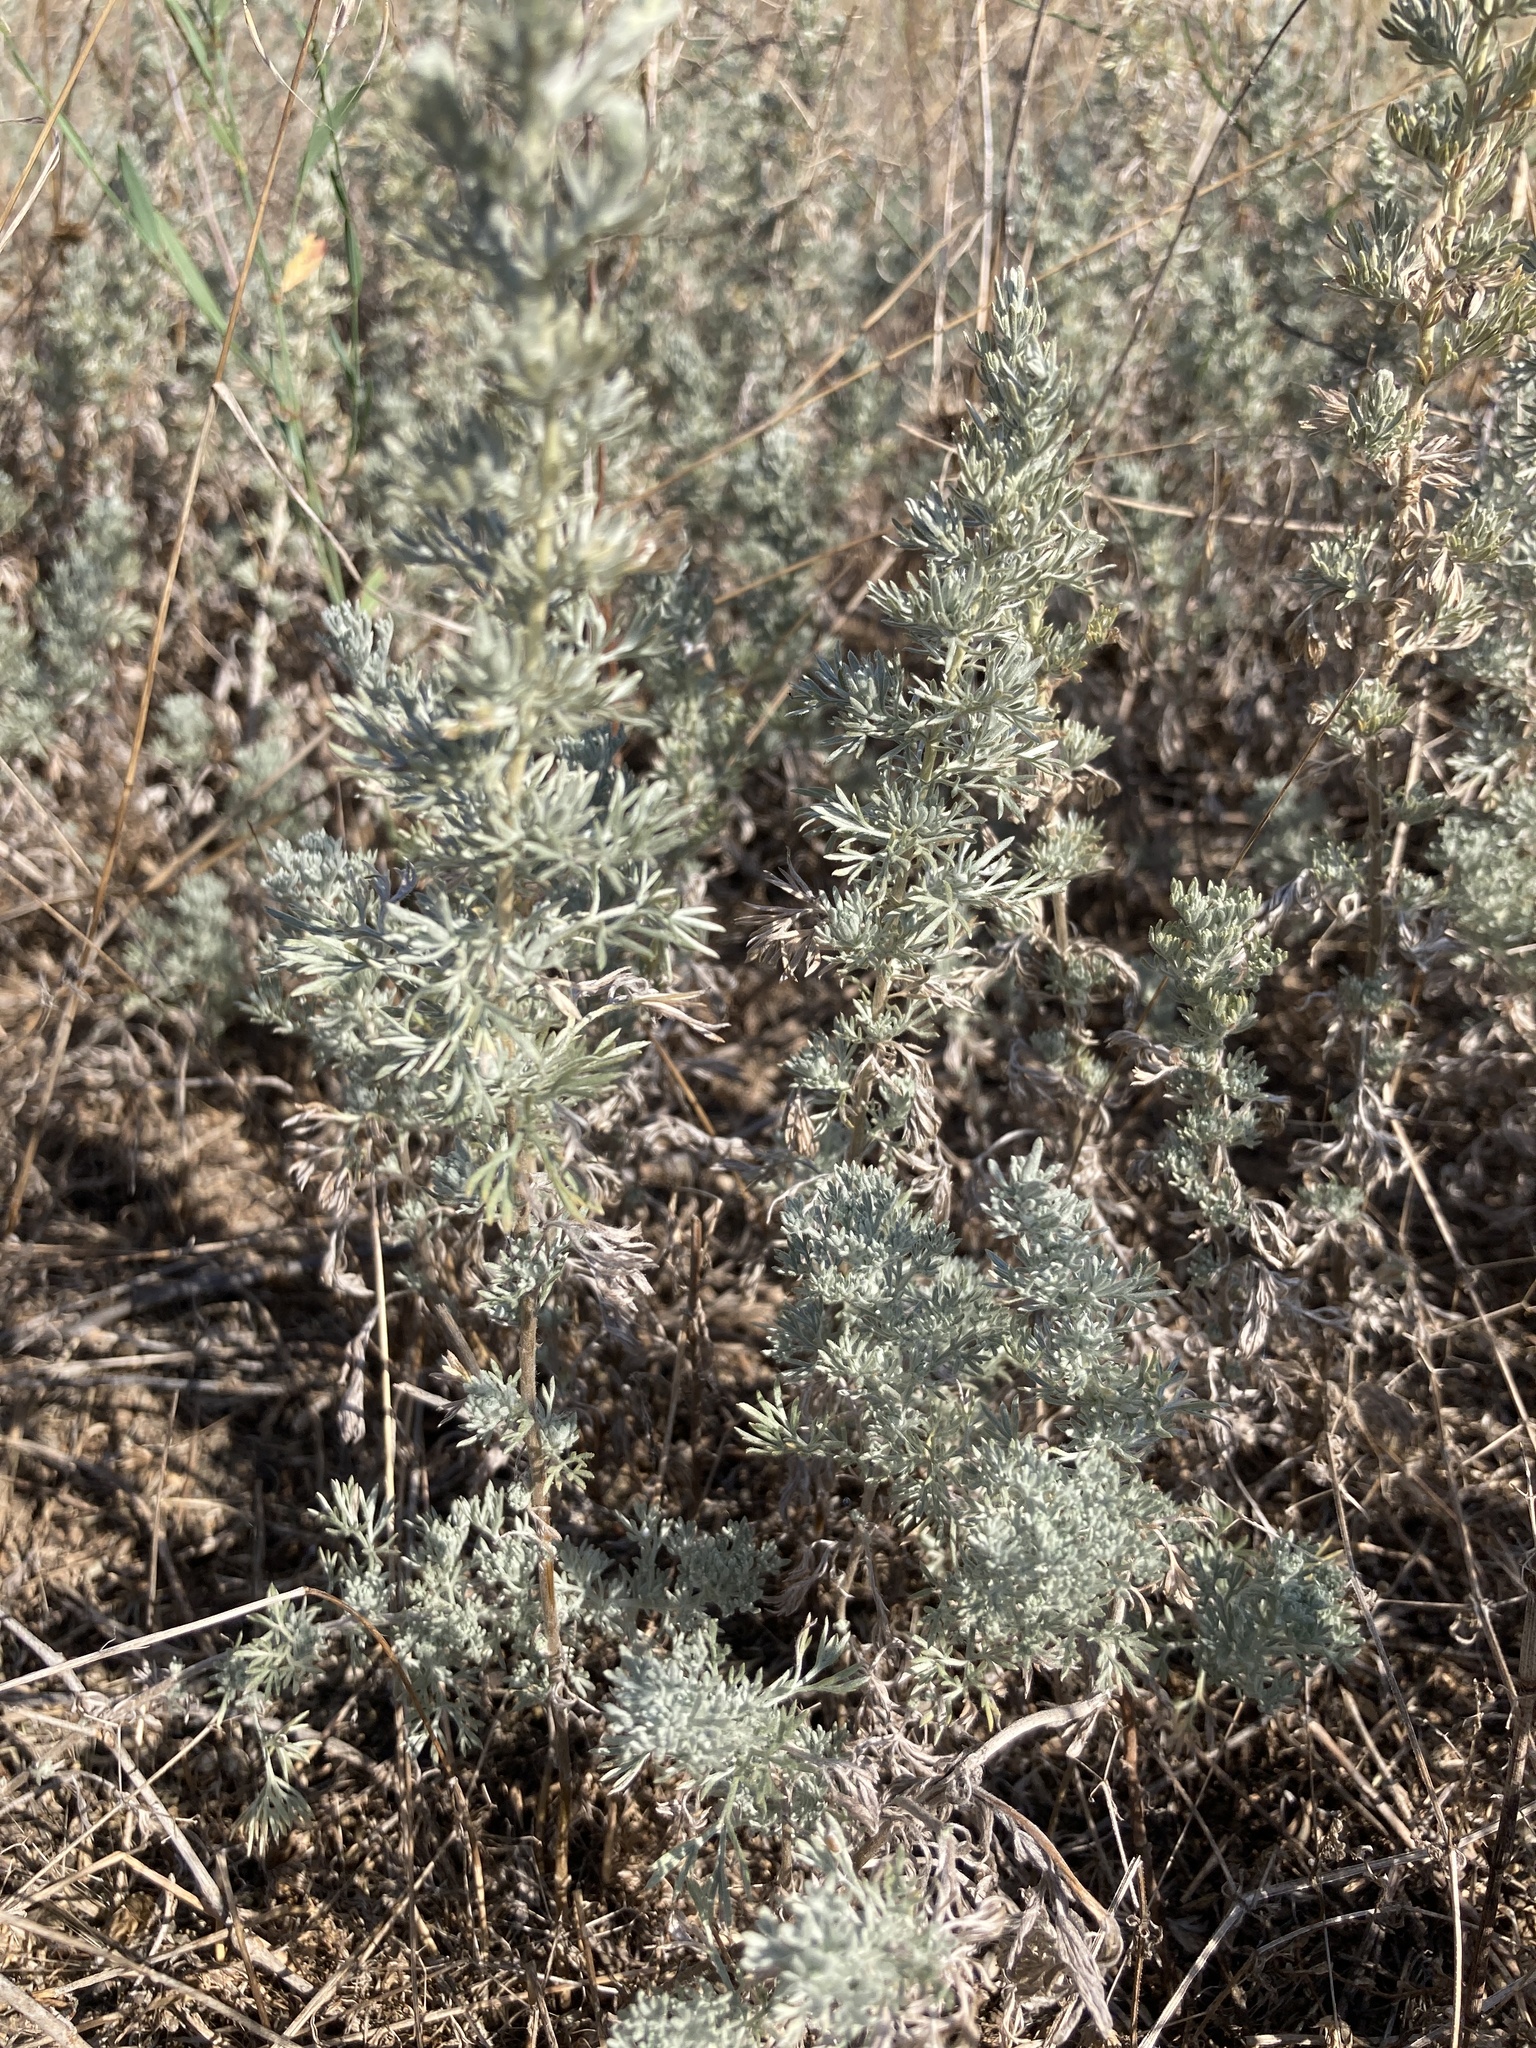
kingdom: Plantae
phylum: Tracheophyta
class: Magnoliopsida
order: Asterales
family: Asteraceae
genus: Artemisia
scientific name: Artemisia austriaca
